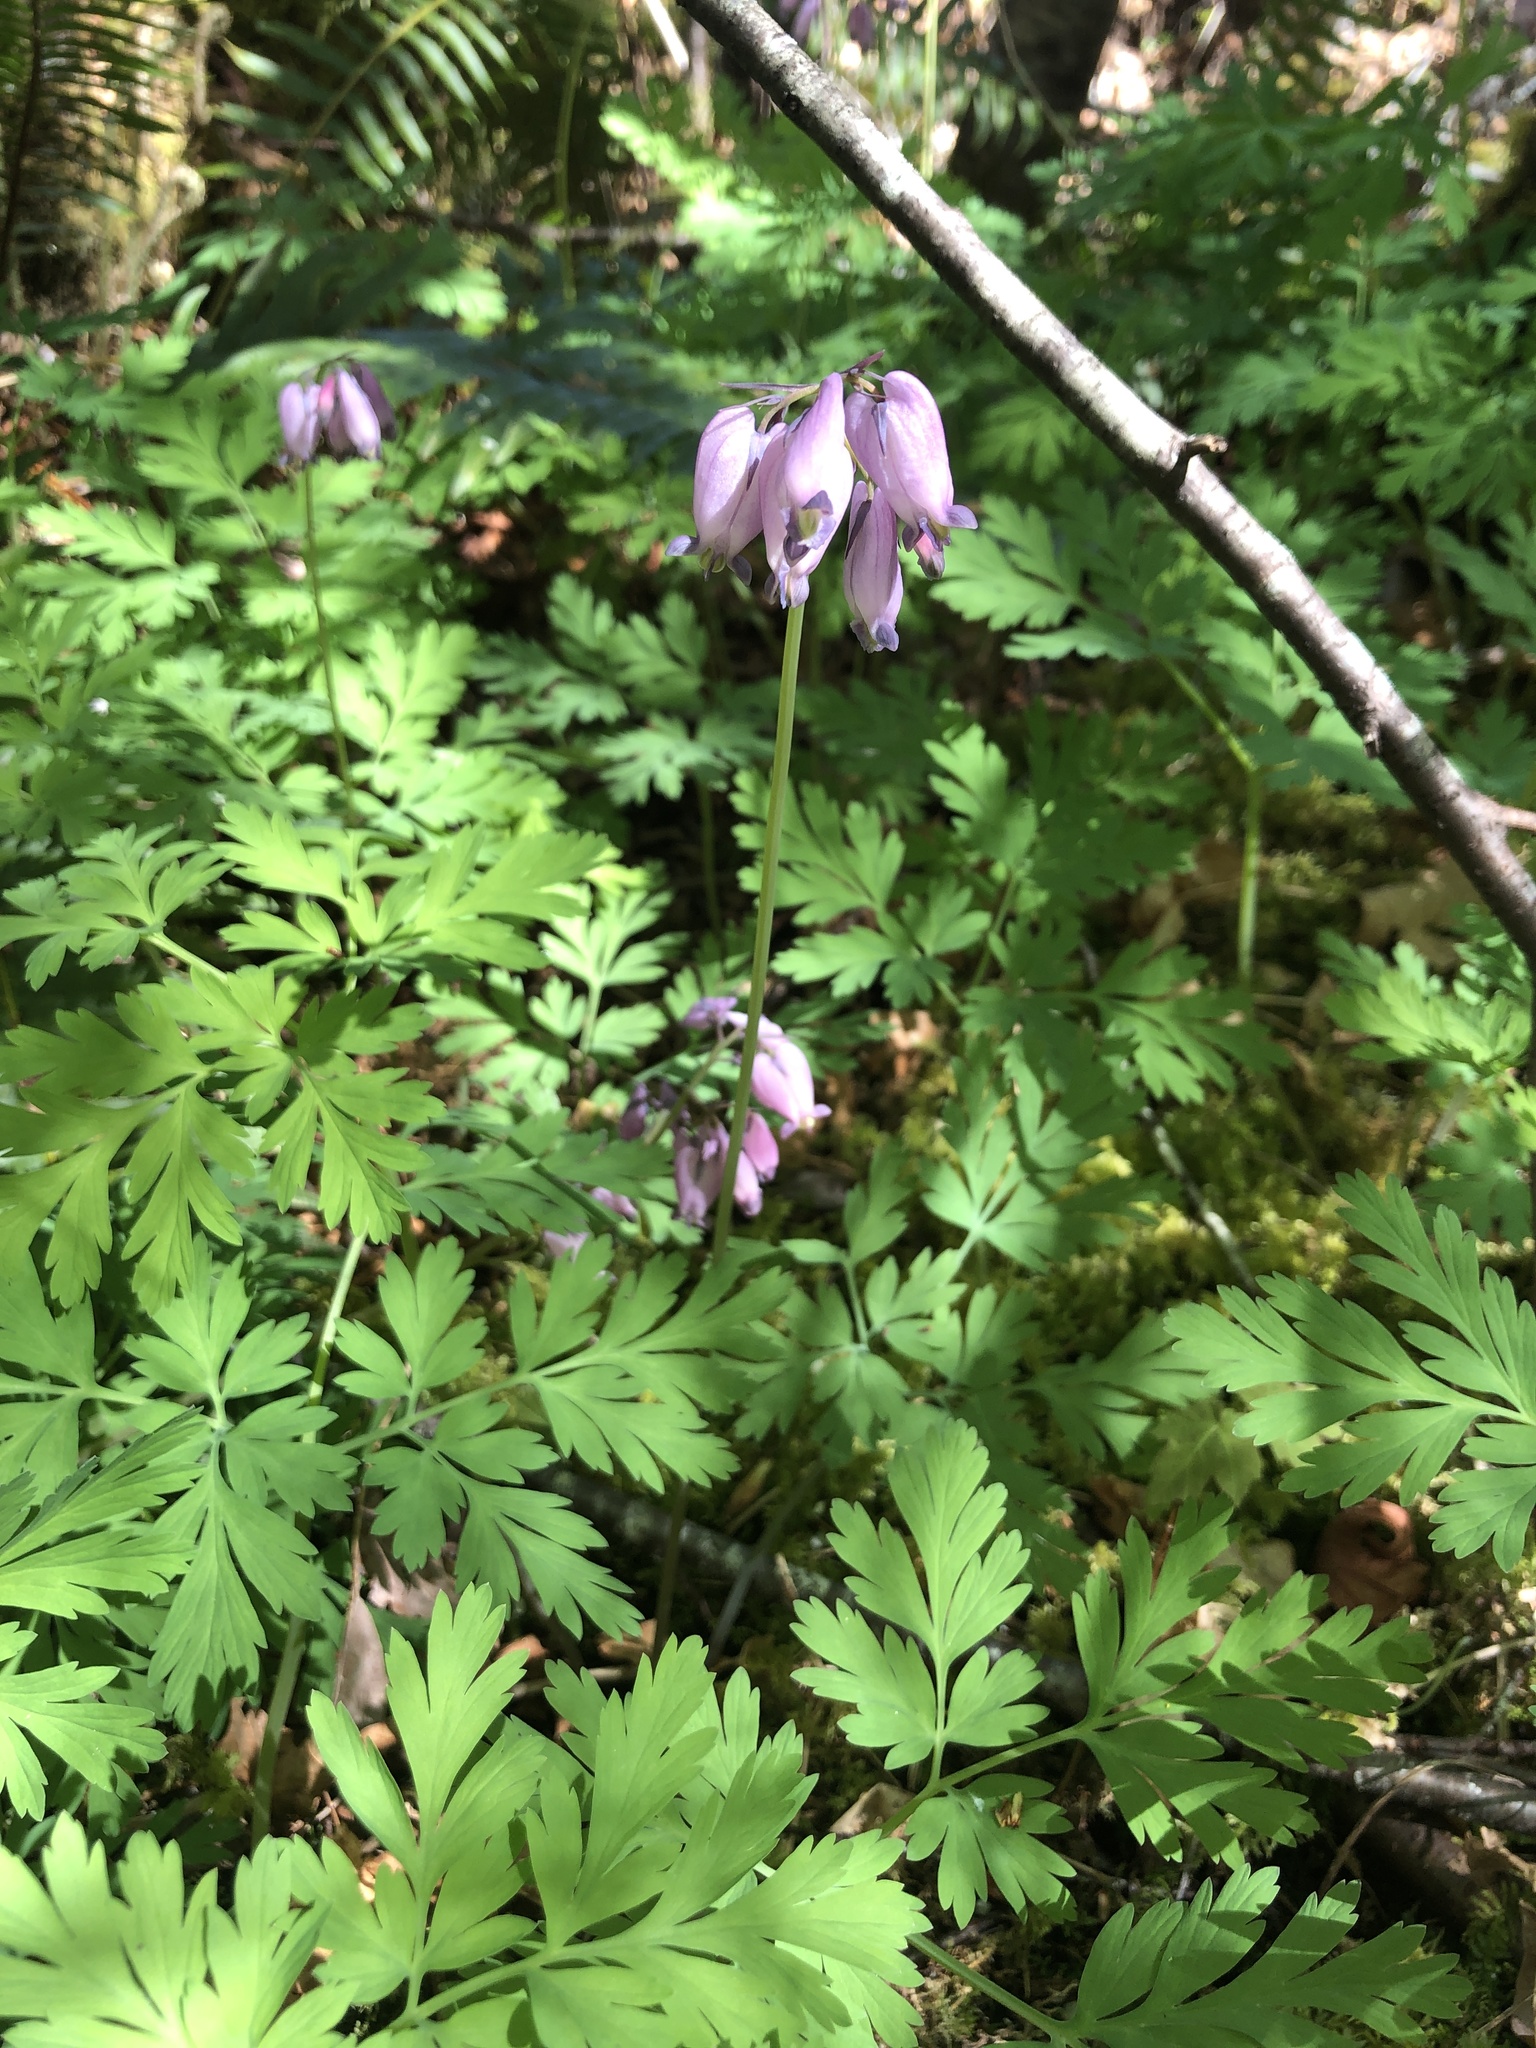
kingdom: Plantae
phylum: Tracheophyta
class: Magnoliopsida
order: Ranunculales
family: Papaveraceae
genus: Dicentra
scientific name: Dicentra formosa
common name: Bleeding-heart
